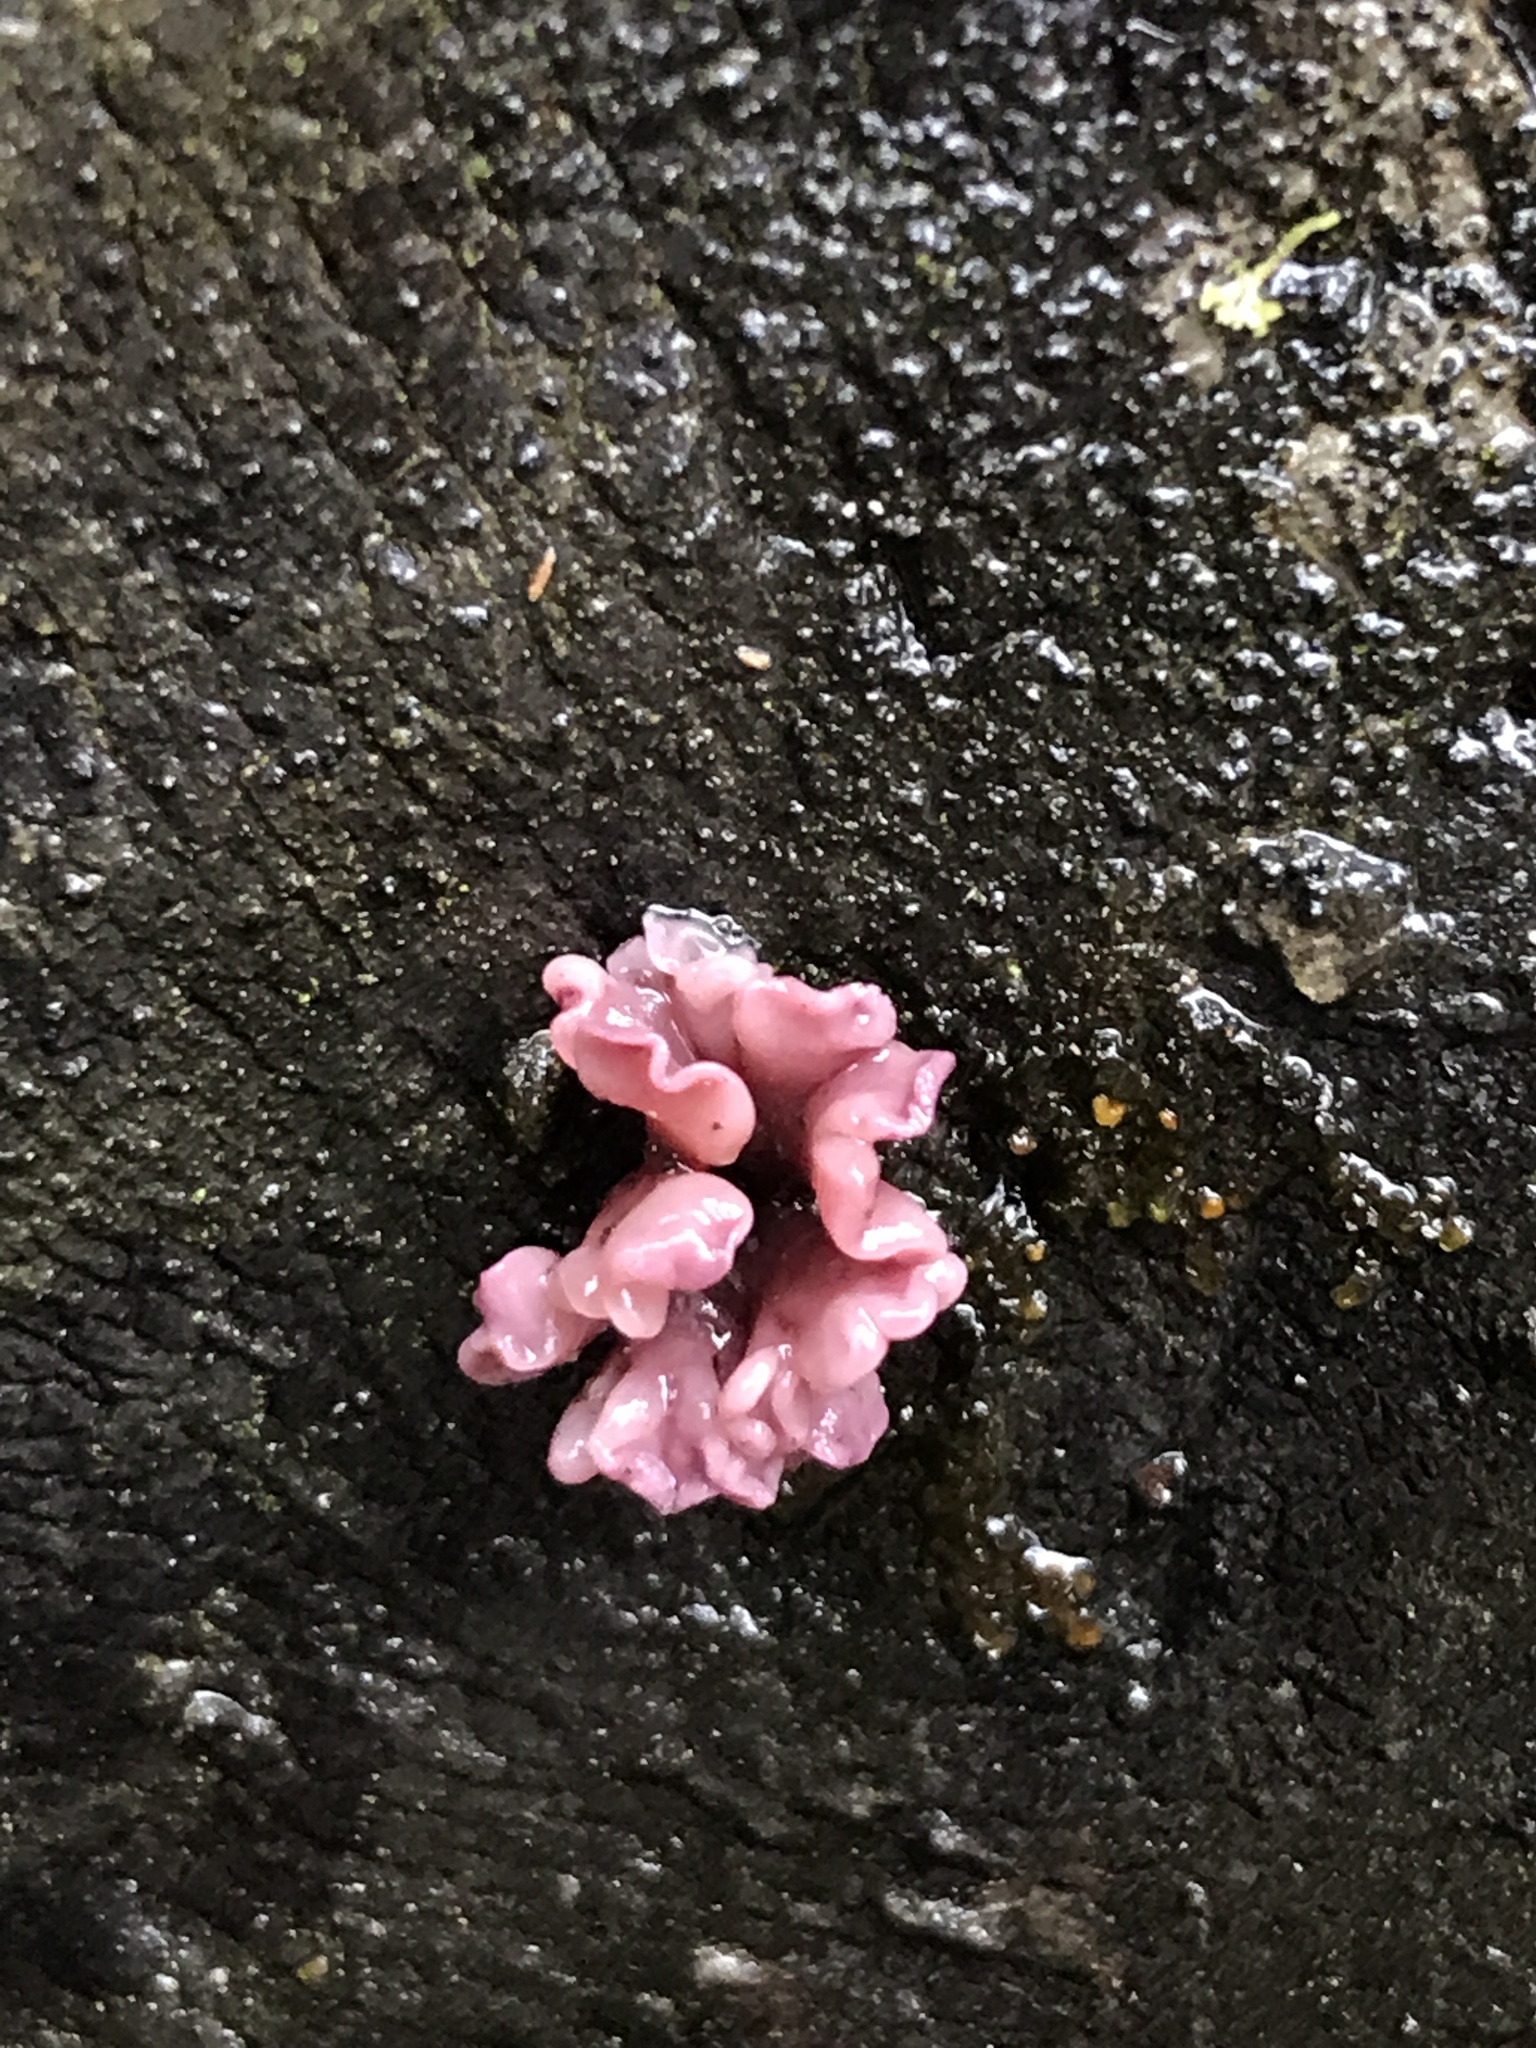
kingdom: Fungi
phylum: Ascomycota
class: Leotiomycetes
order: Helotiales
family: Gelatinodiscaceae
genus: Ascocoryne
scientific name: Ascocoryne sarcoides
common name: Purple jellydisc
